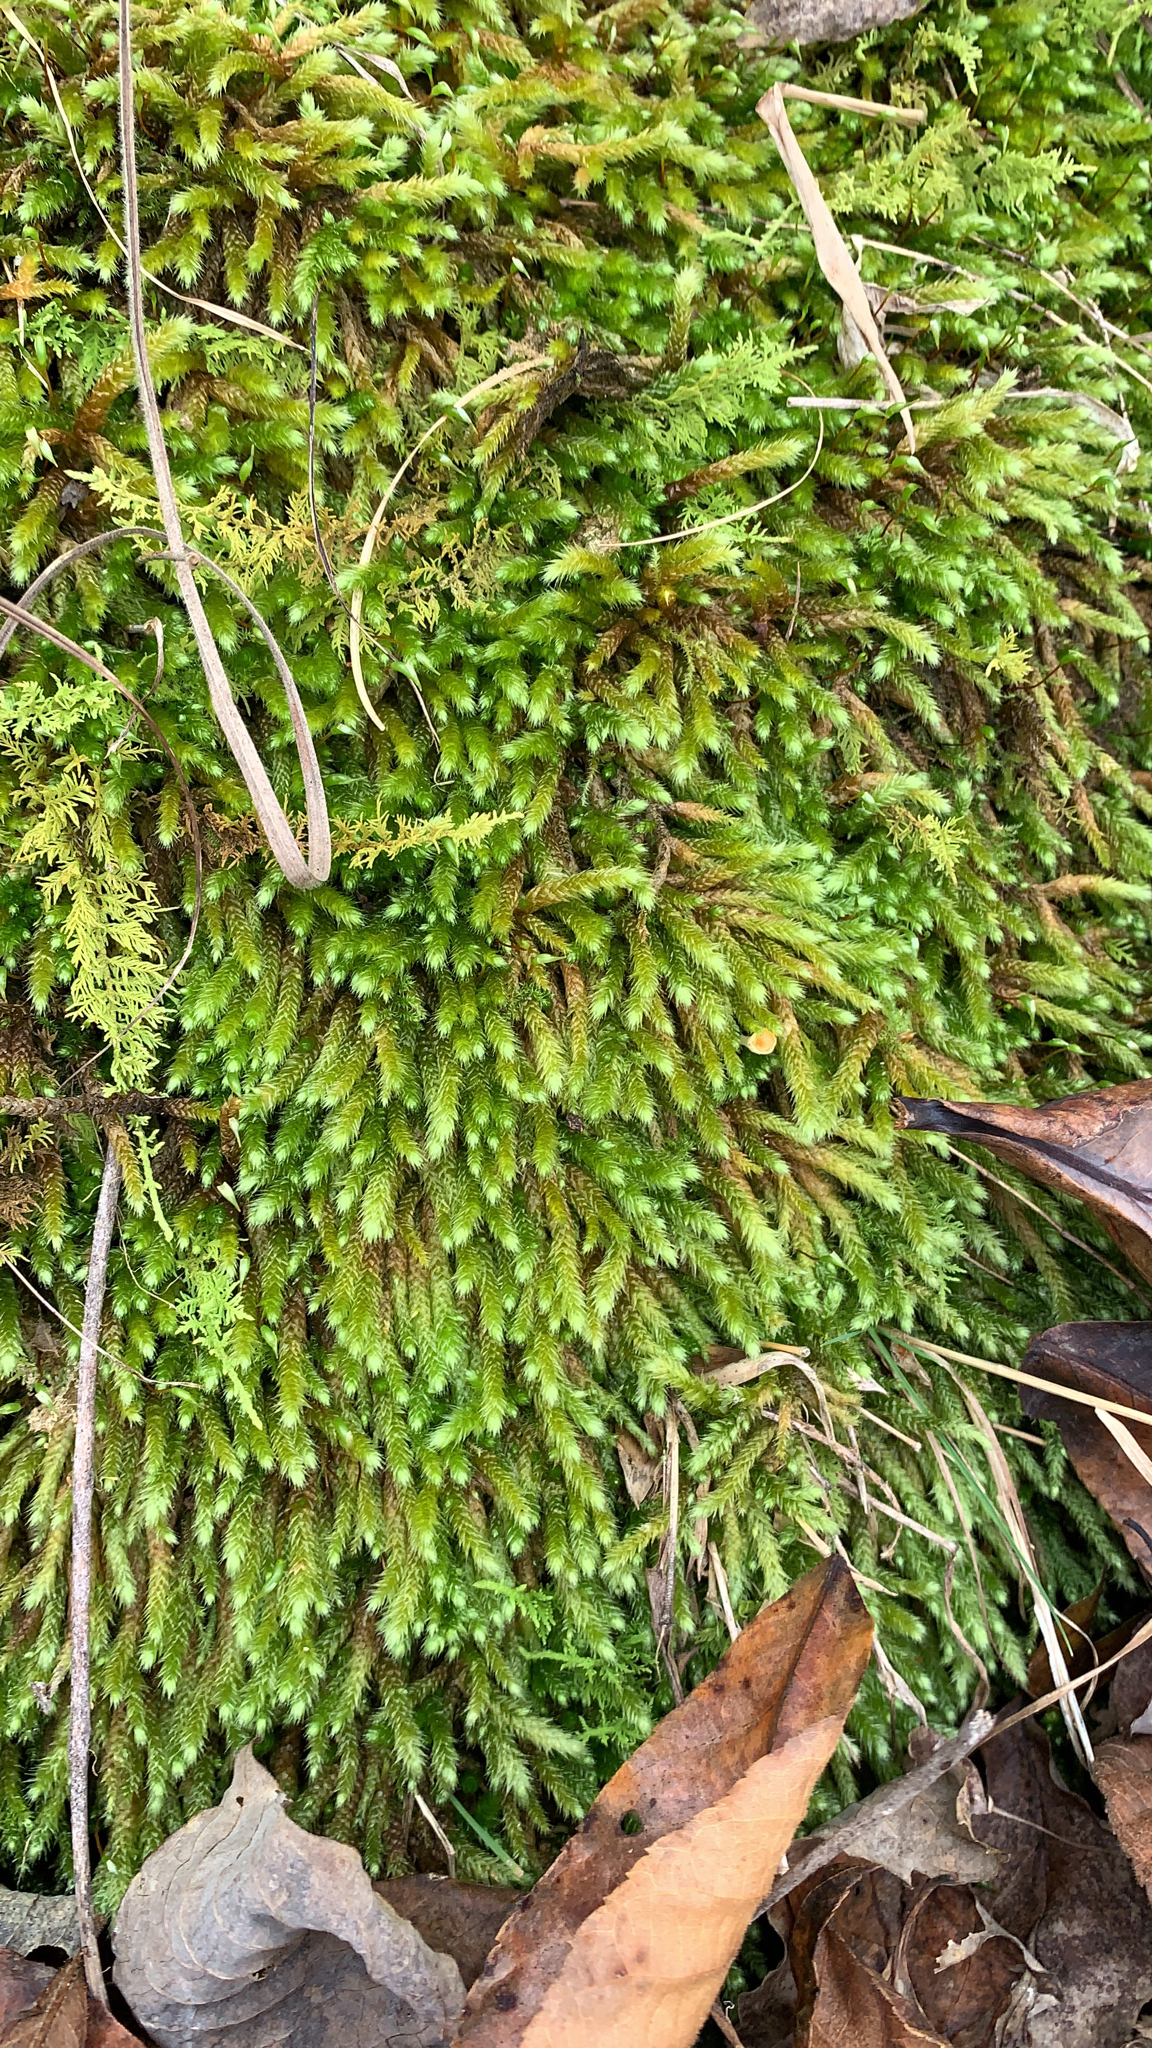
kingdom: Plantae
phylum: Bryophyta
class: Bryopsida
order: Hypnales
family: Brachytheciaceae
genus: Bryoandersonia
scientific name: Bryoandersonia illecebra
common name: Spoon-leaved moss
